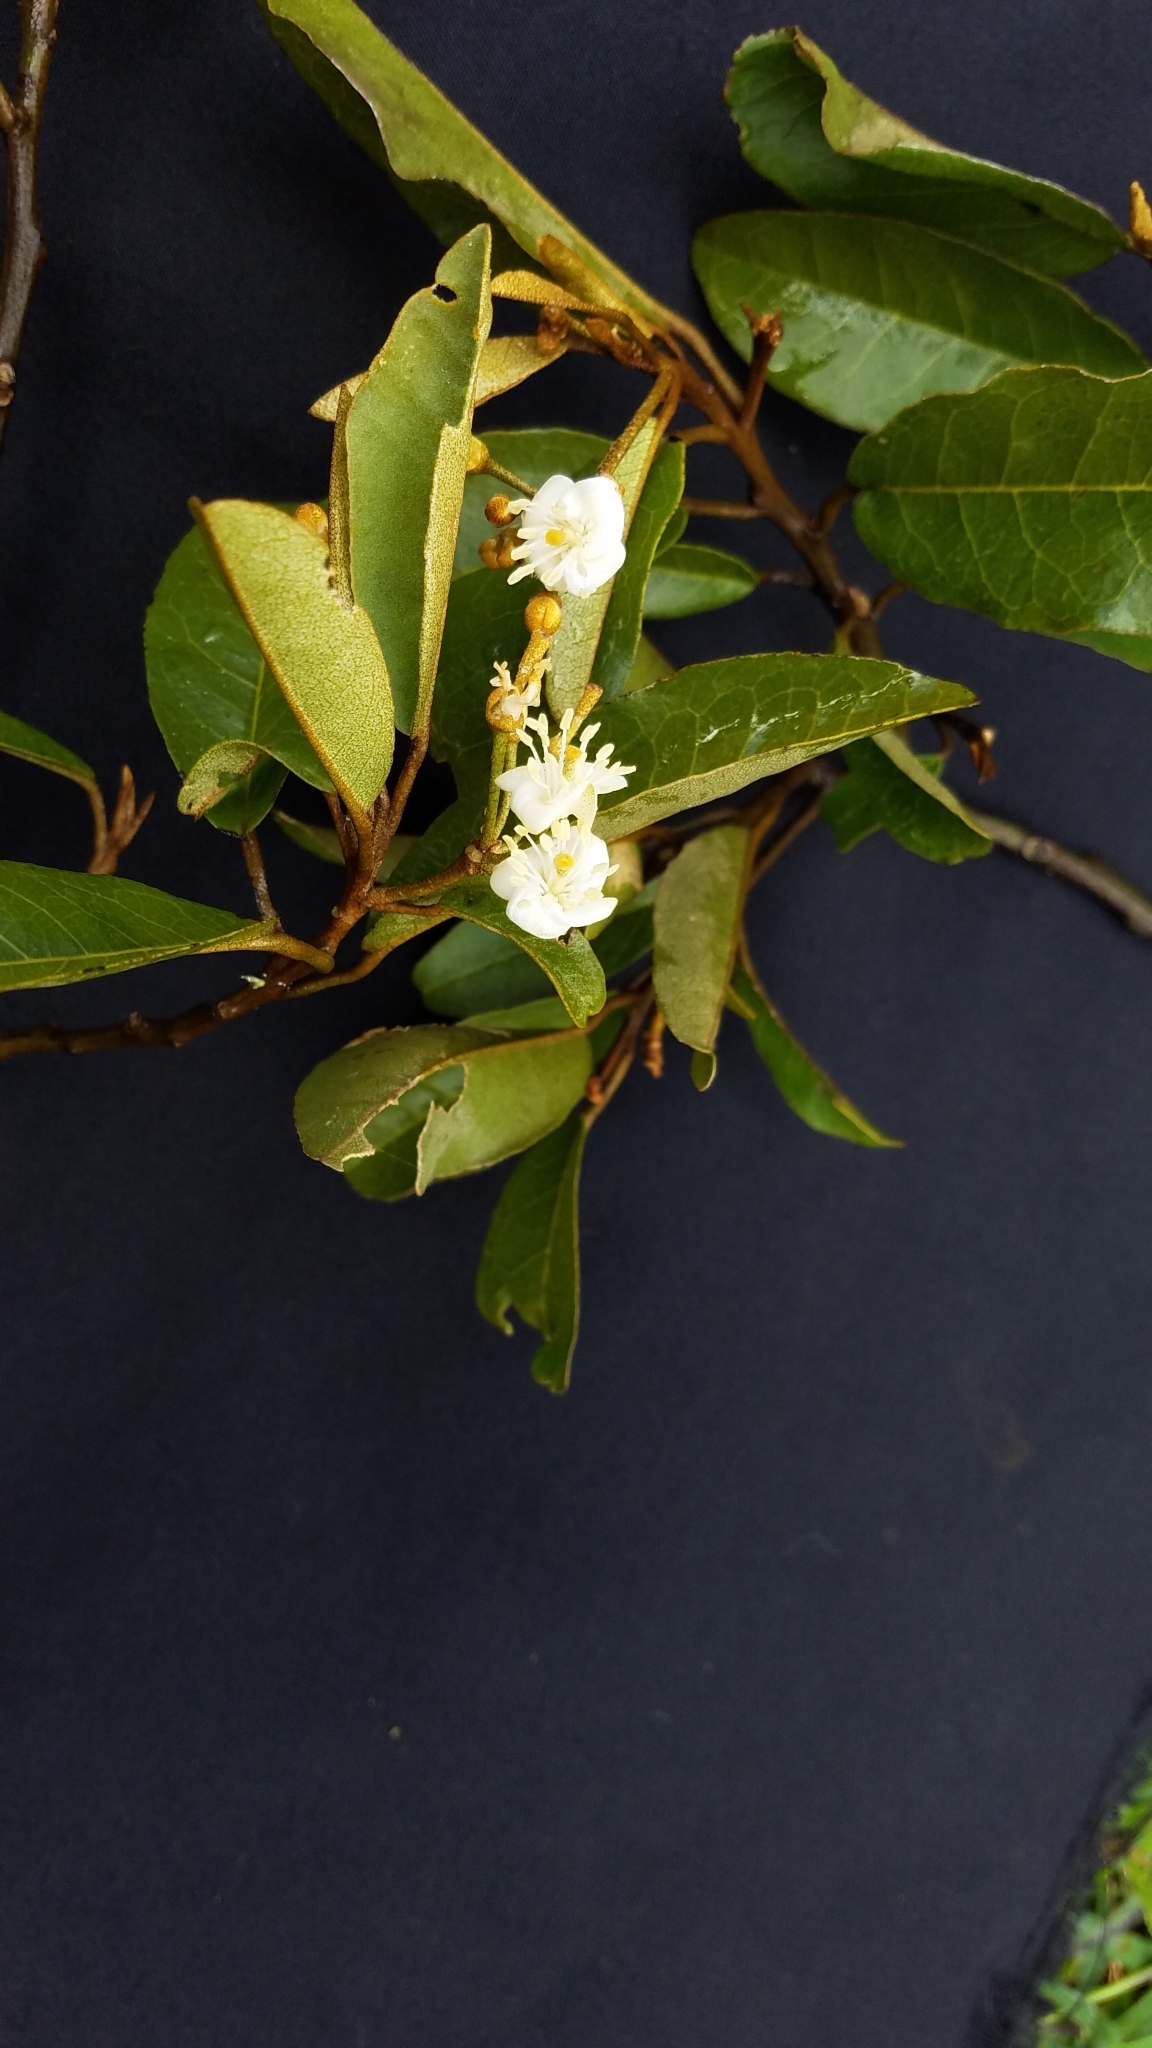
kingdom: Plantae
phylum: Tracheophyta
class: Magnoliopsida
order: Brassicales
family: Capparaceae
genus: Quadrella
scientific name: Quadrella pringlei
